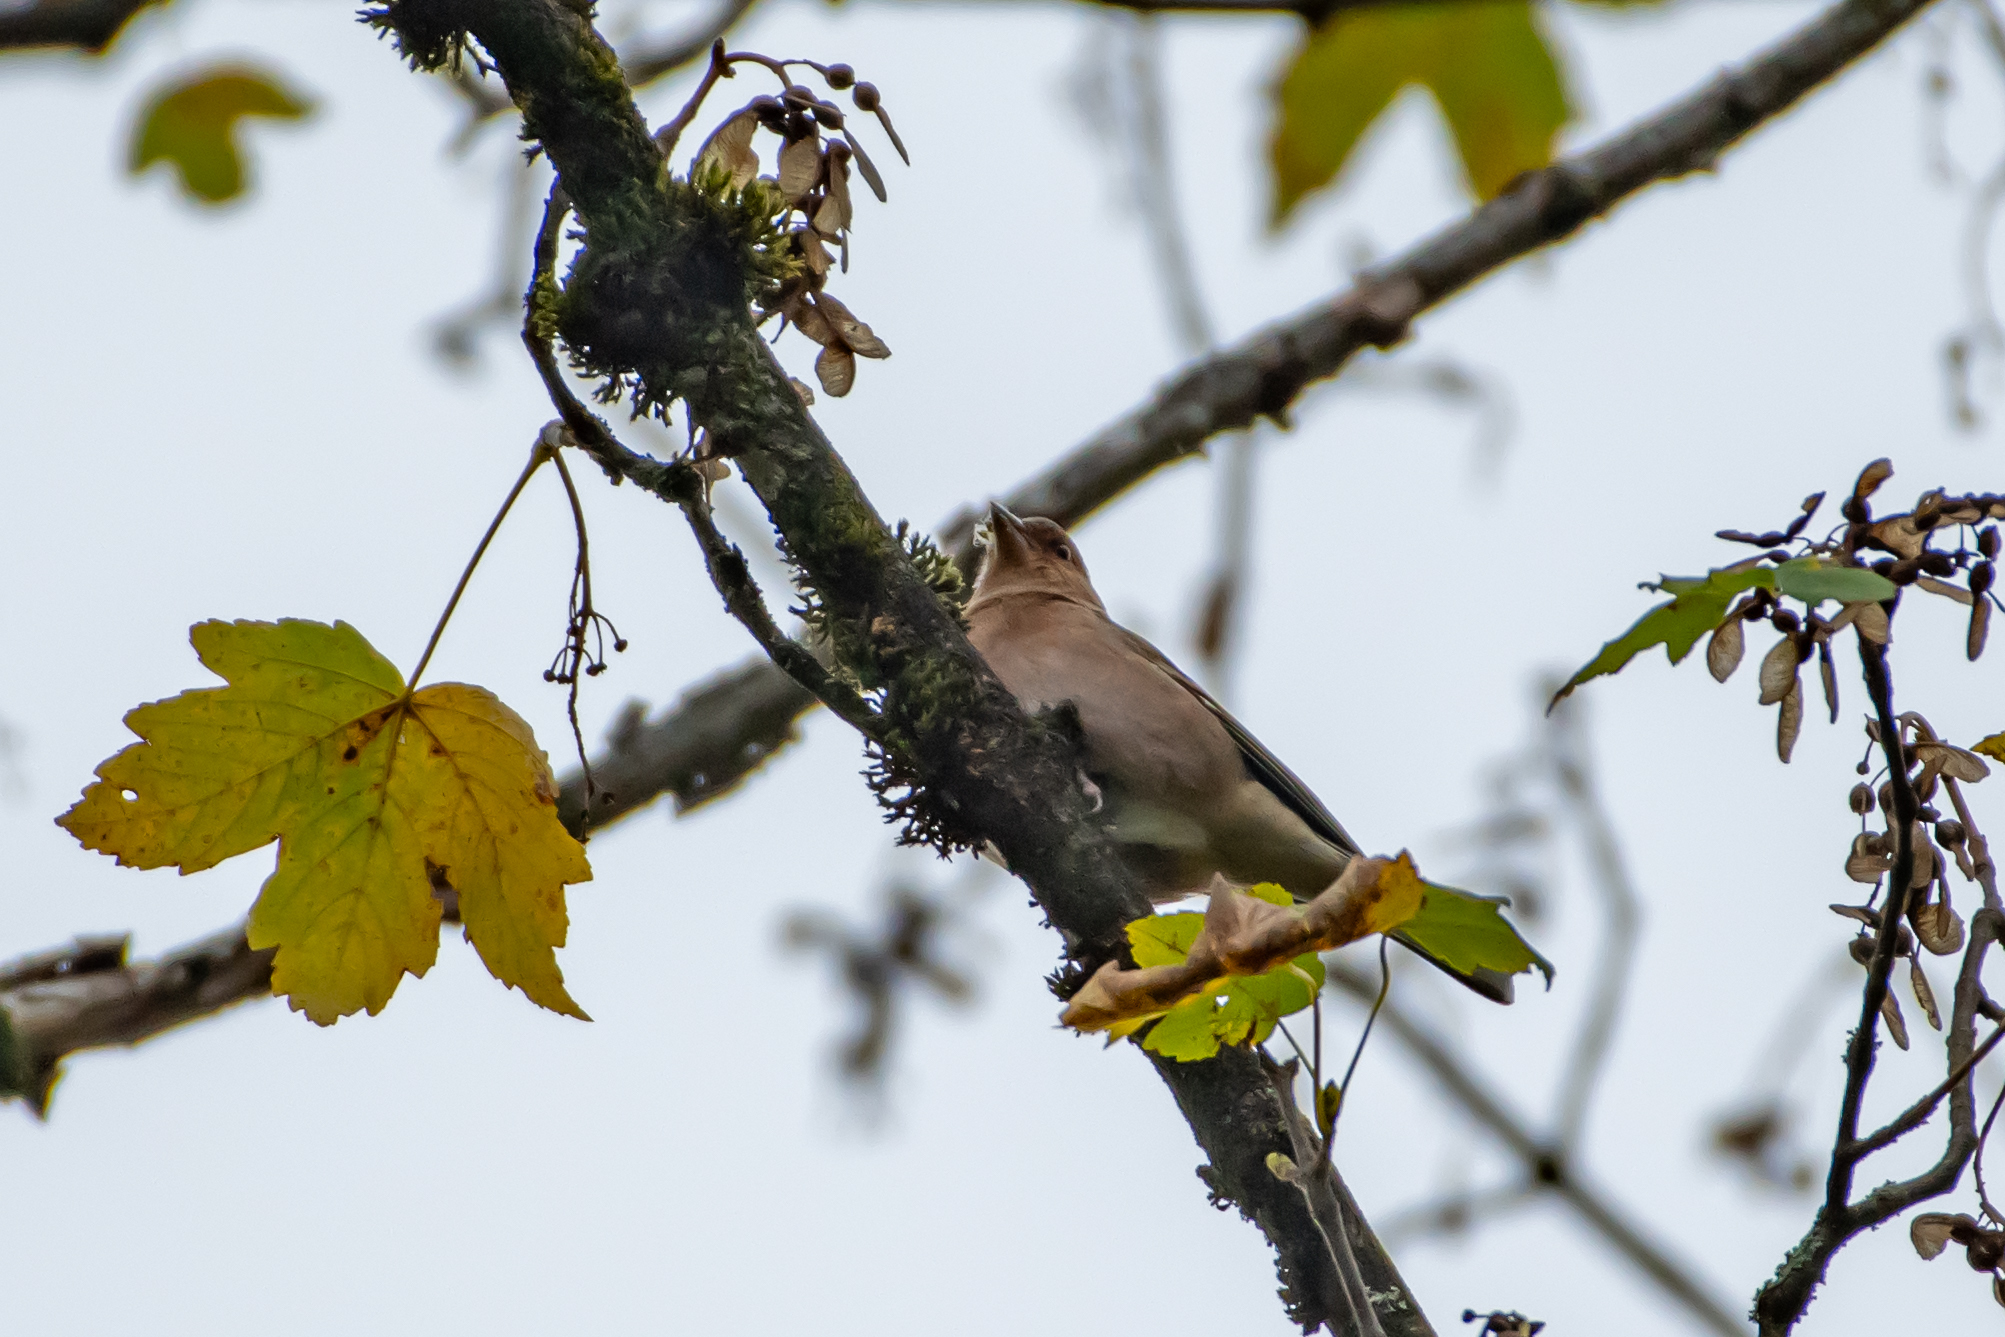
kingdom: Animalia
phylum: Chordata
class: Aves
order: Passeriformes
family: Fringillidae
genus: Fringilla
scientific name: Fringilla coelebs
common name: Common chaffinch
